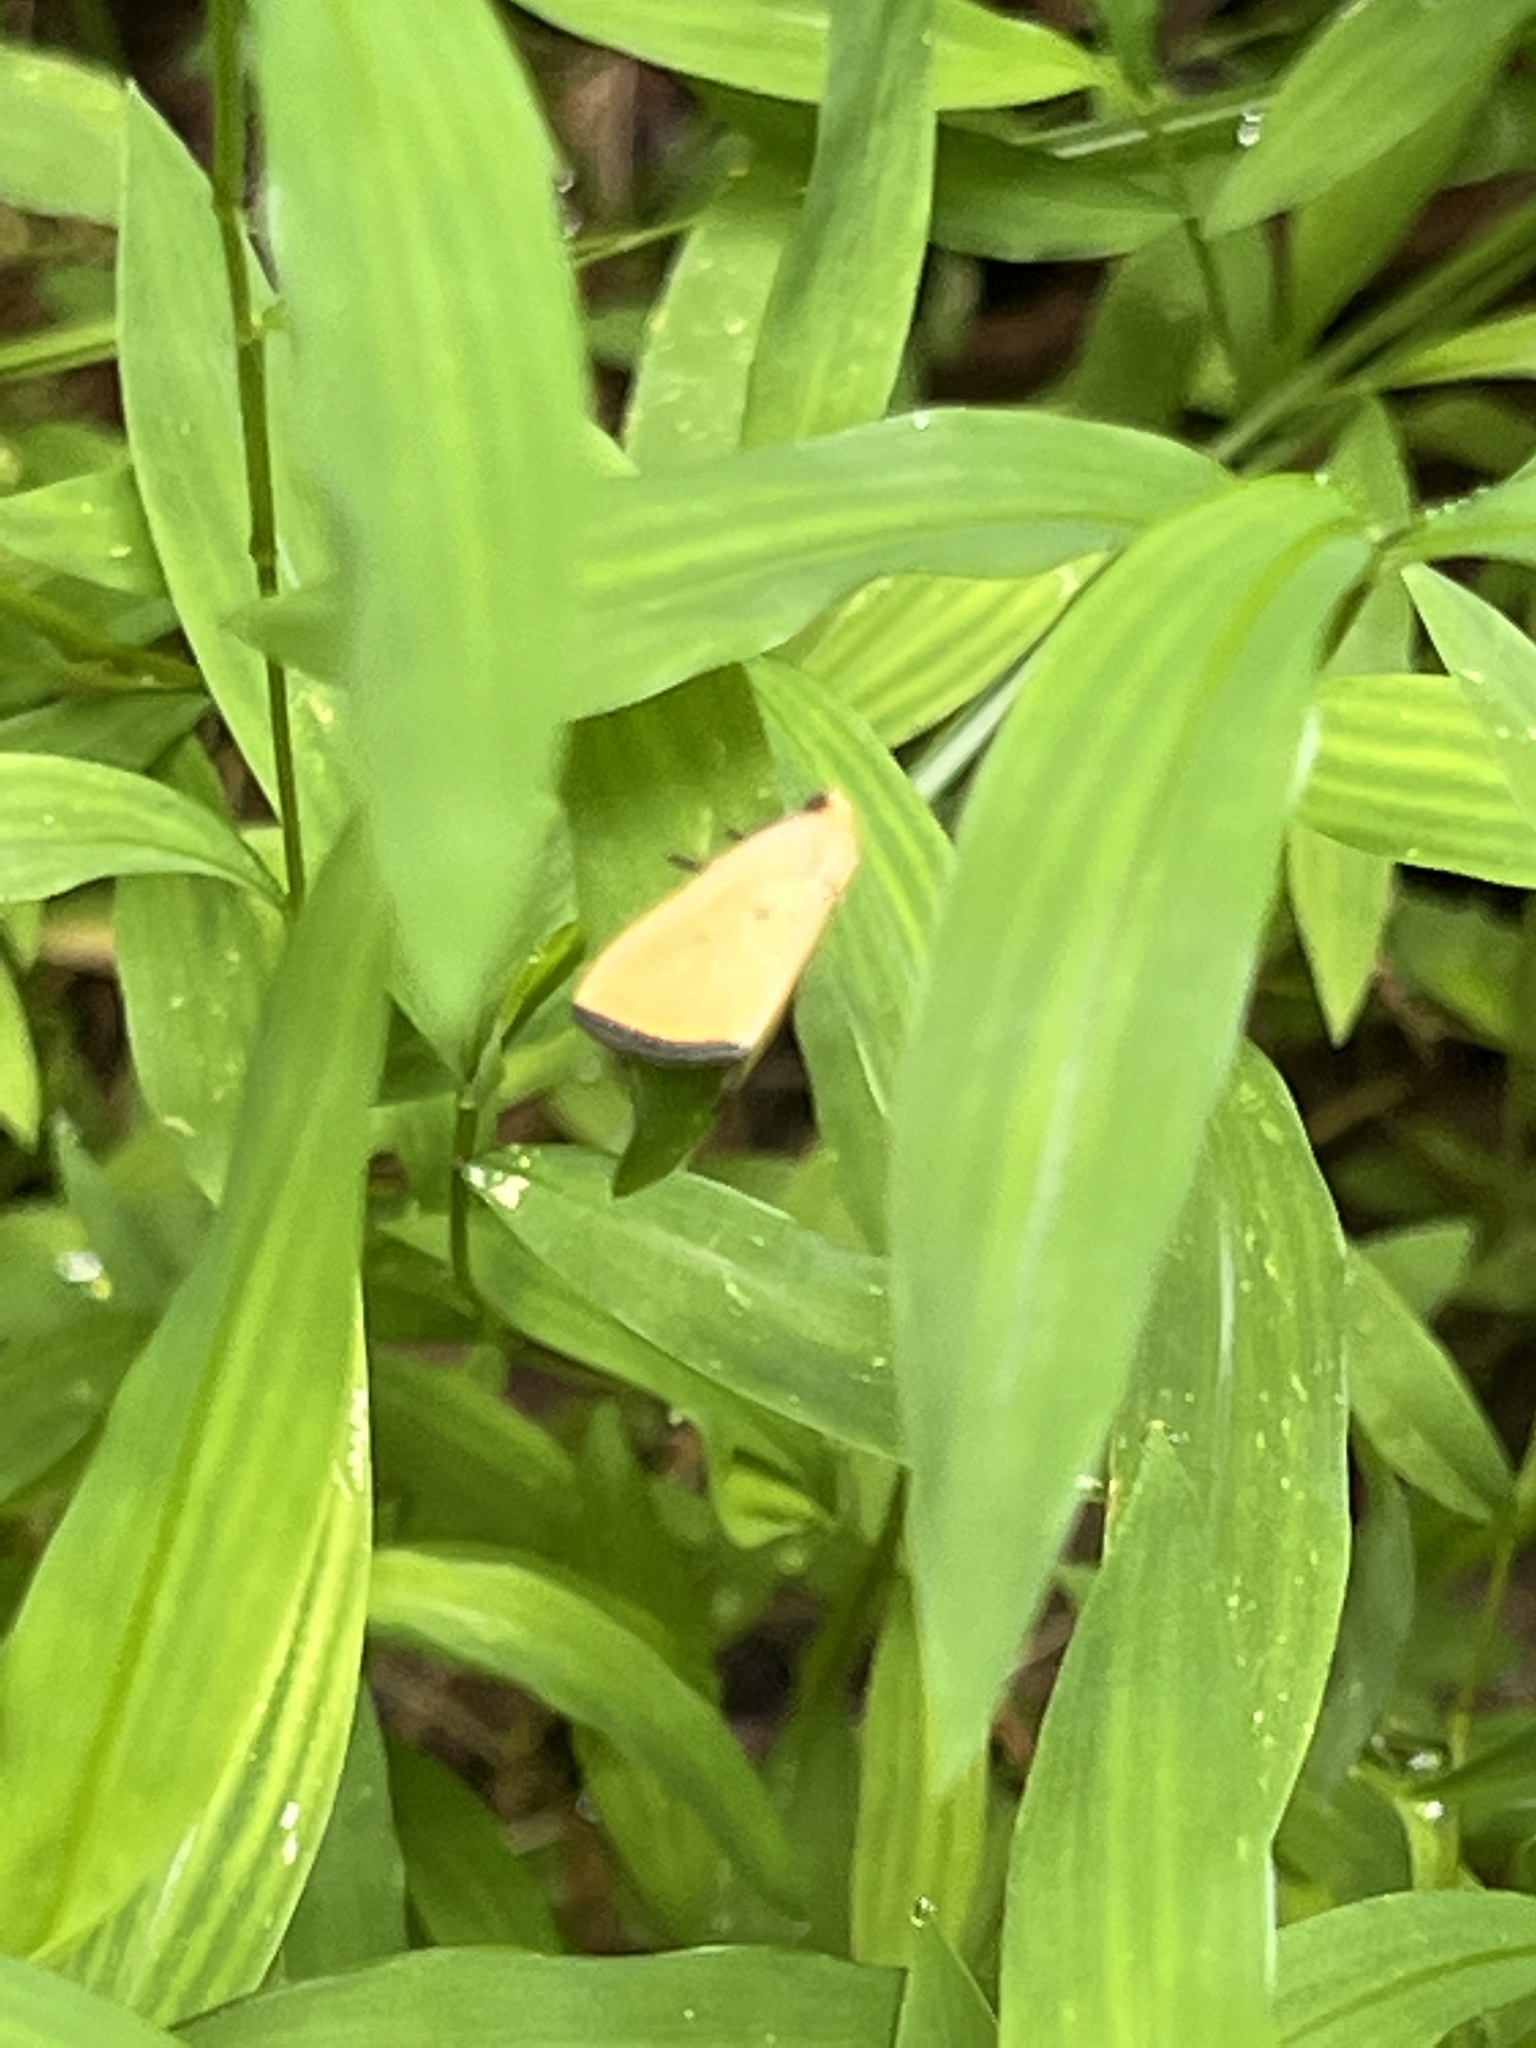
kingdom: Animalia
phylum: Arthropoda
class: Insecta
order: Lepidoptera
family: Noctuidae
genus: Marimatha
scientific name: Marimatha nigrofimbria
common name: Black-bordered lemon moth
